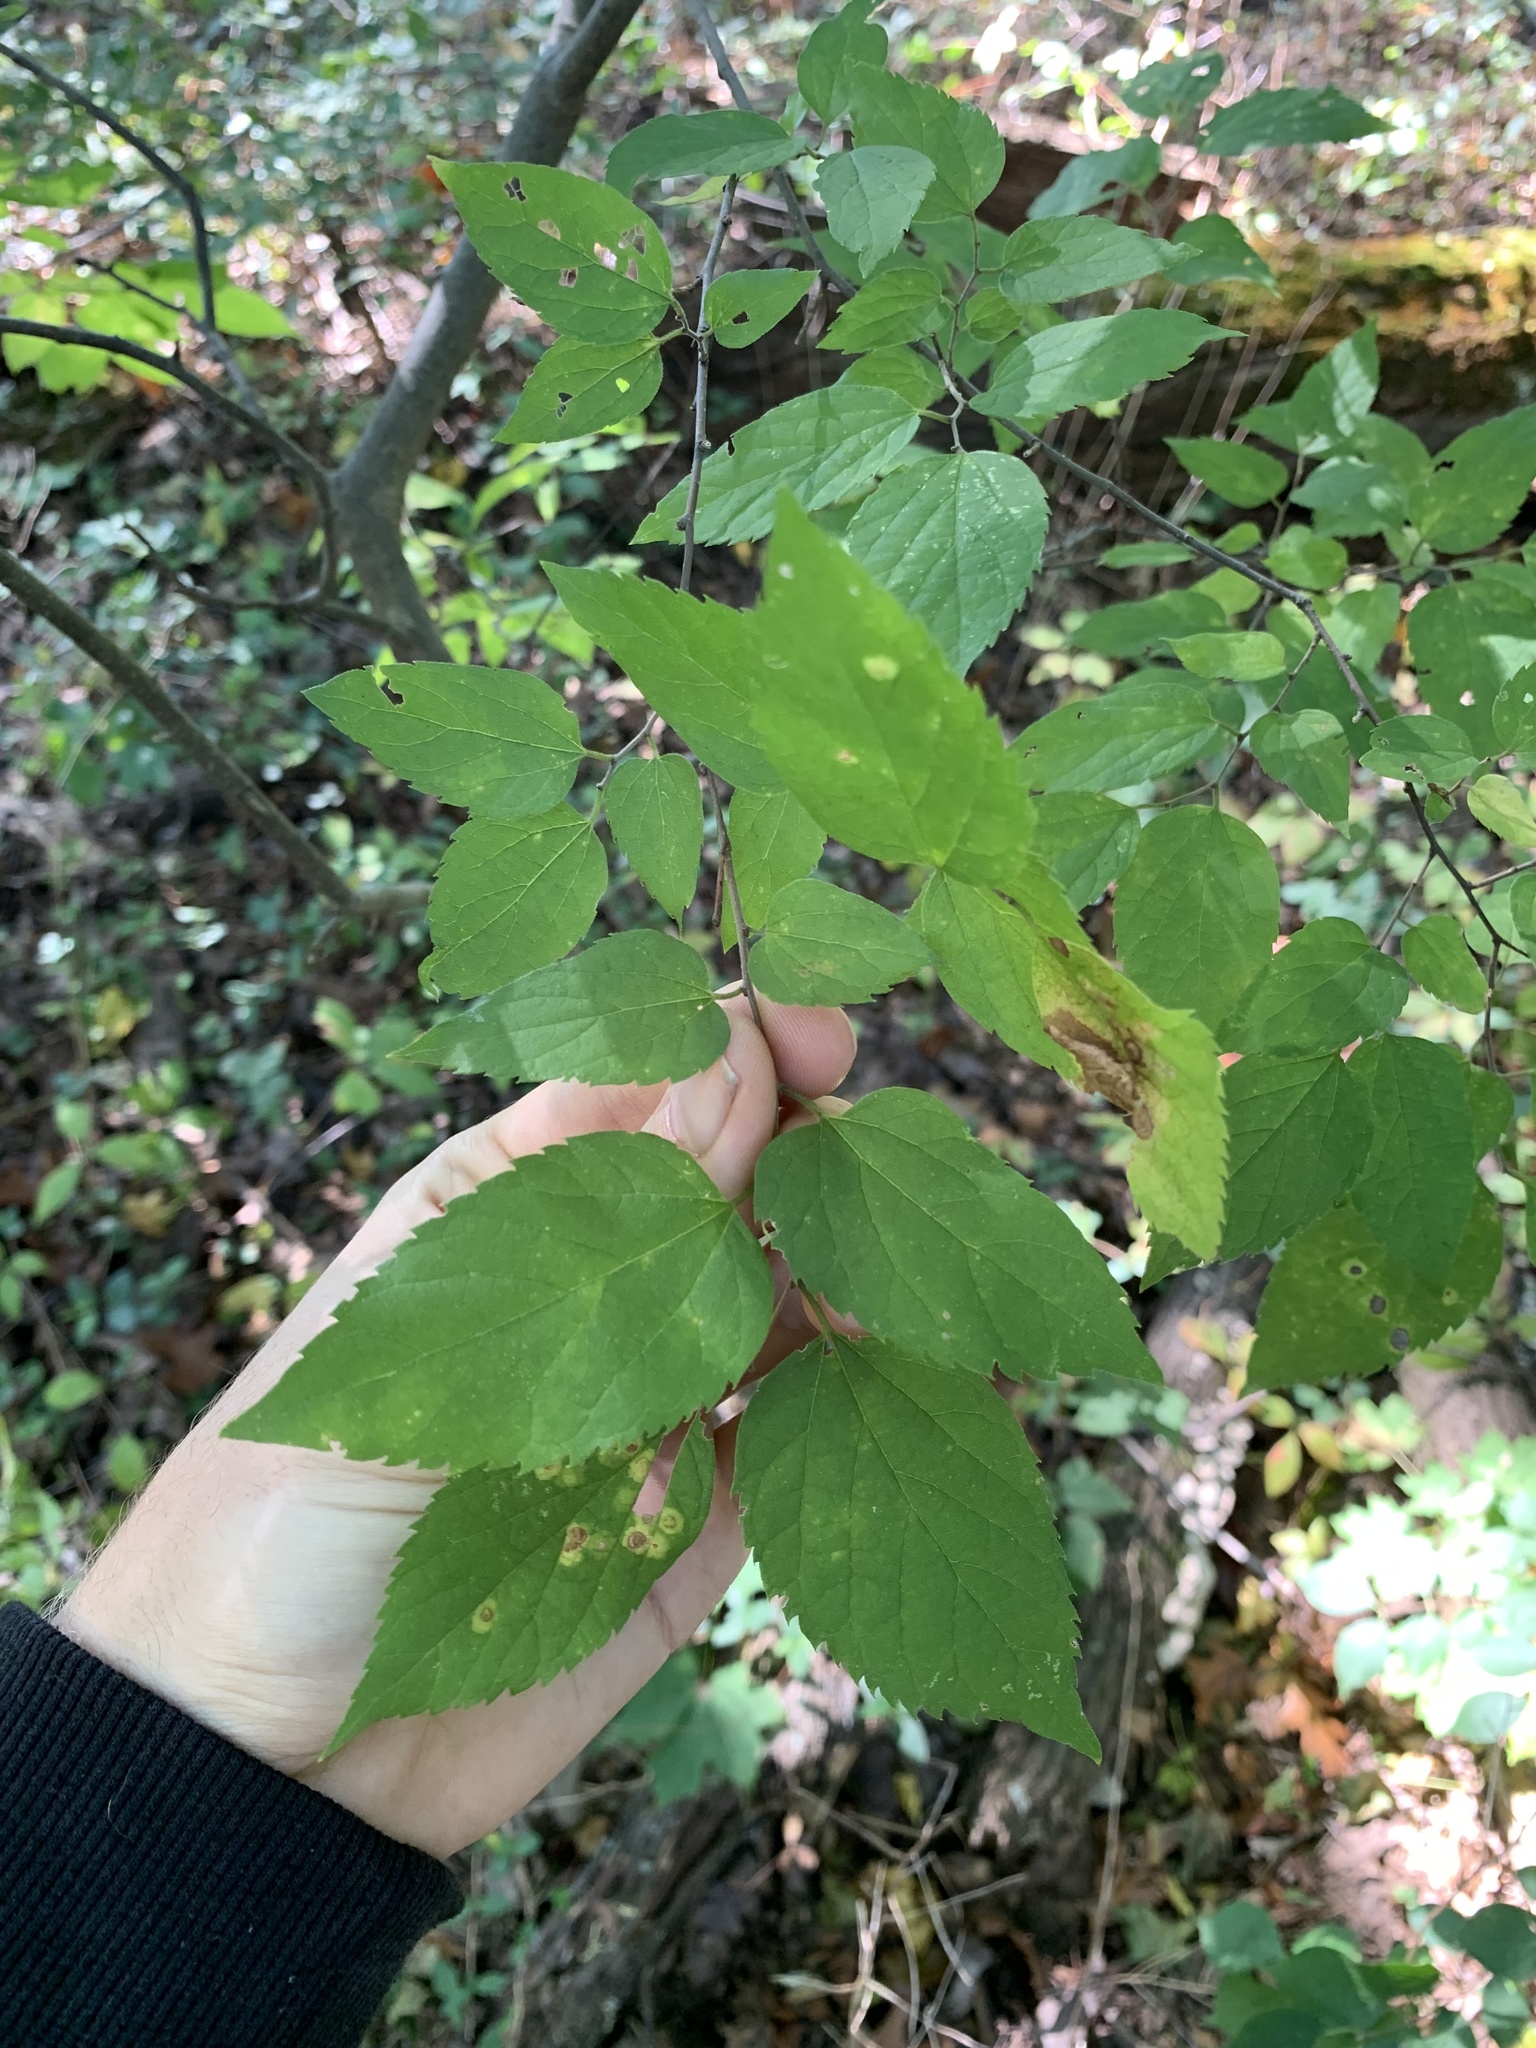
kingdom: Plantae
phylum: Tracheophyta
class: Magnoliopsida
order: Rosales
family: Cannabaceae
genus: Celtis
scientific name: Celtis occidentalis
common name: Common hackberry
